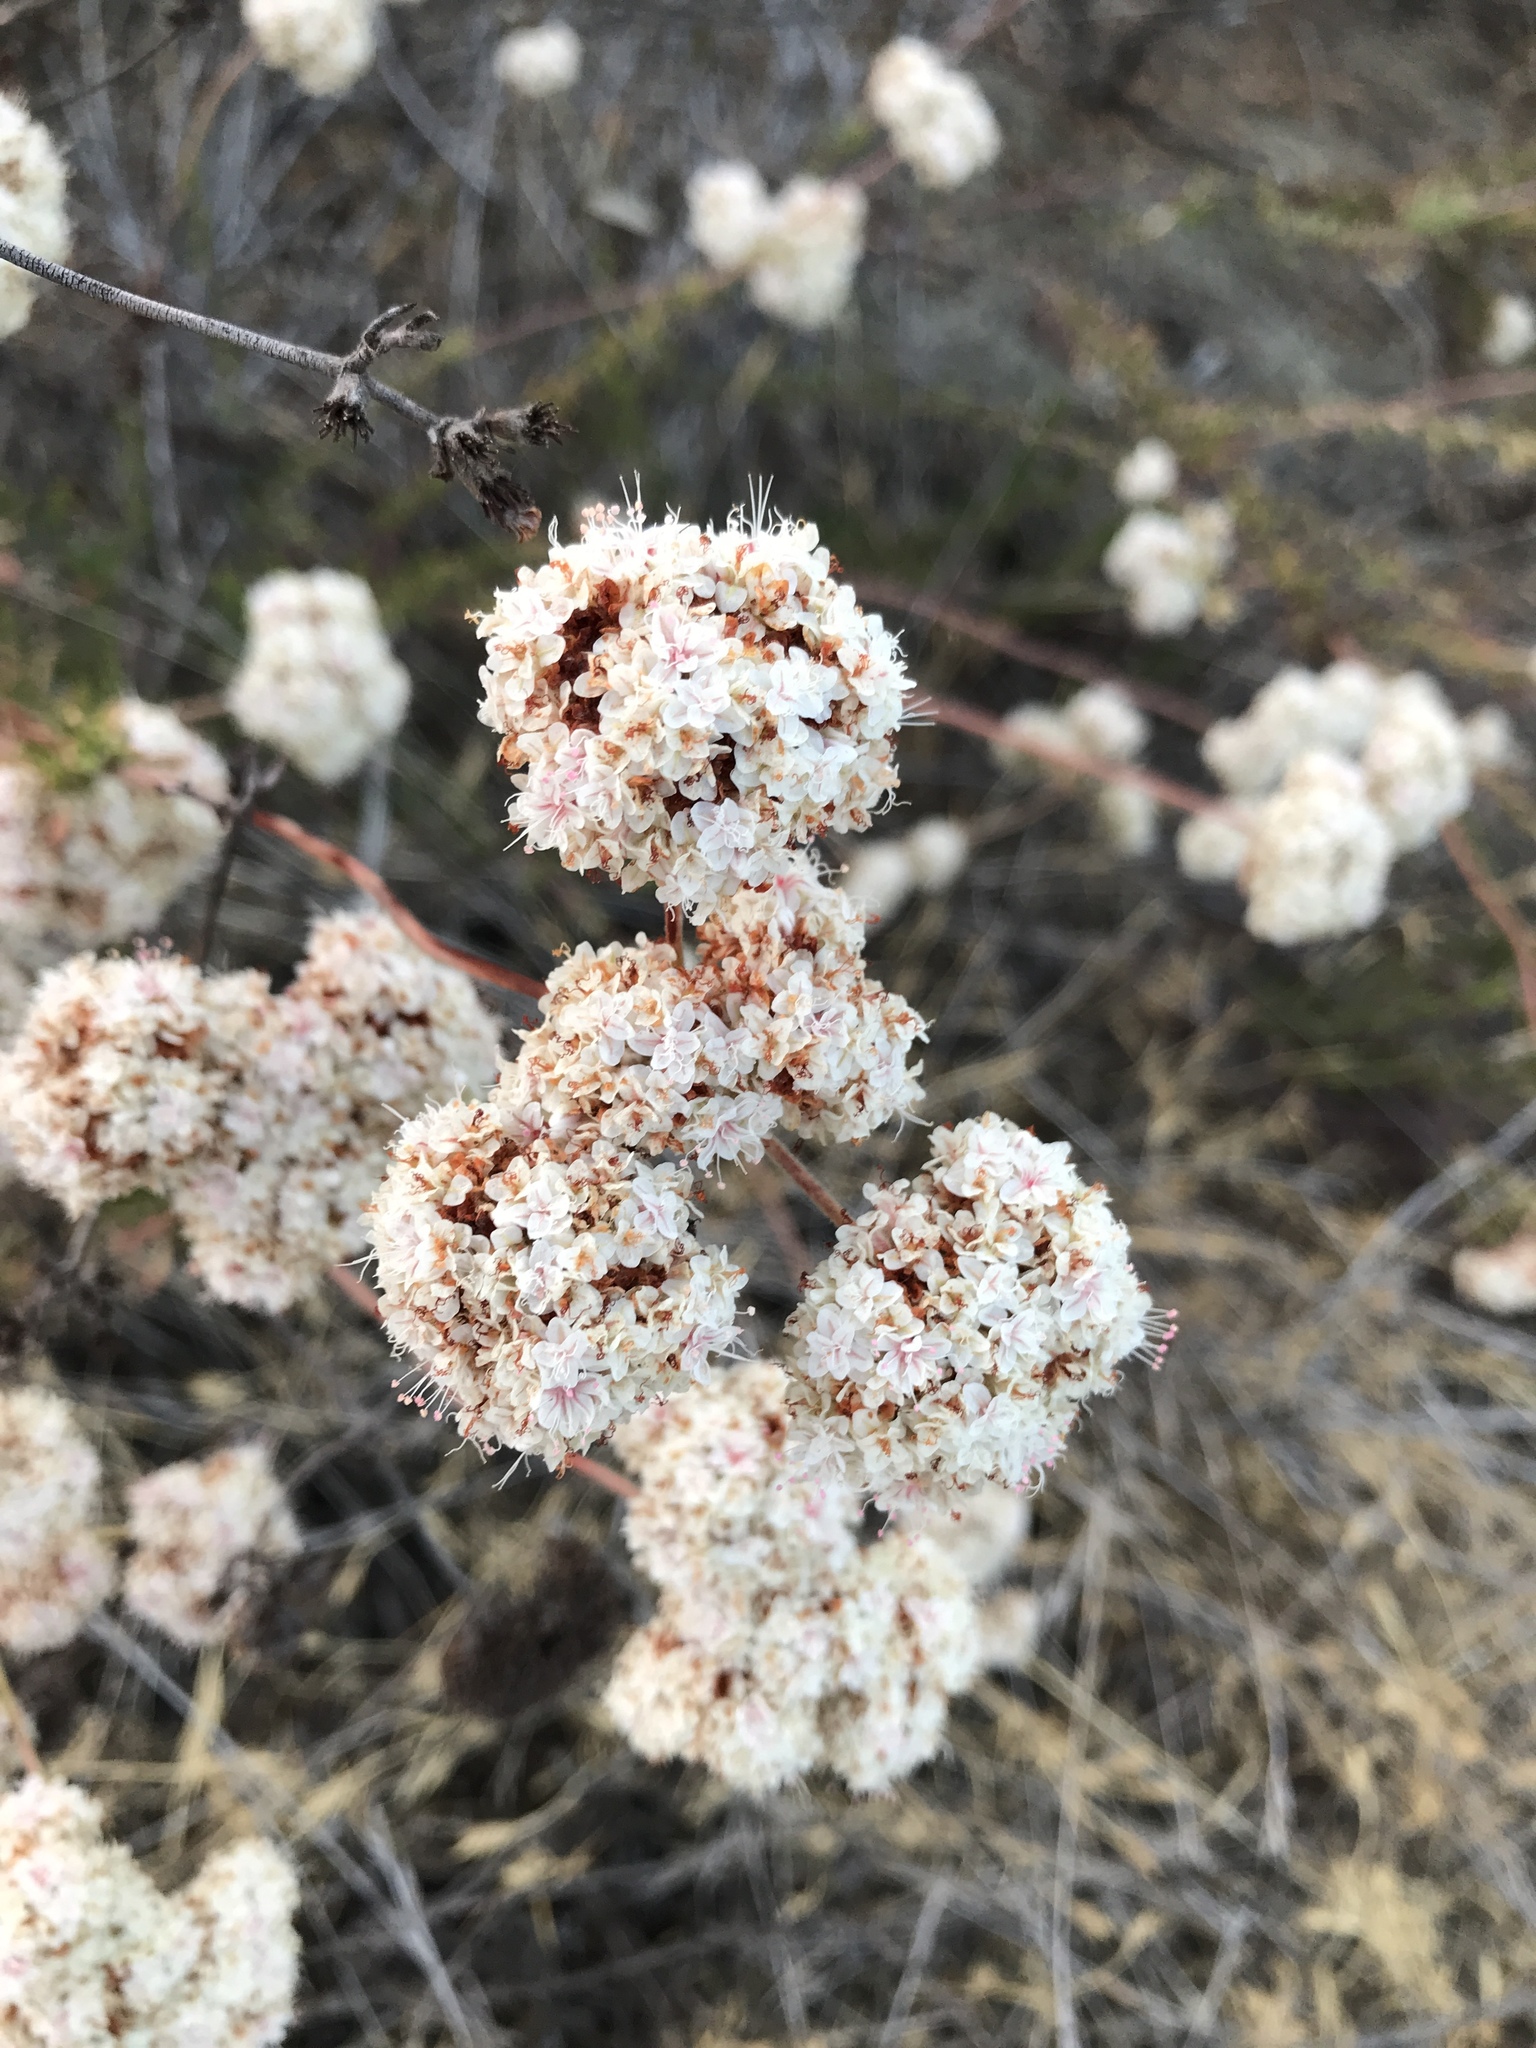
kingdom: Plantae
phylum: Tracheophyta
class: Magnoliopsida
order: Caryophyllales
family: Polygonaceae
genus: Eriogonum
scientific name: Eriogonum fasciculatum
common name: California wild buckwheat
